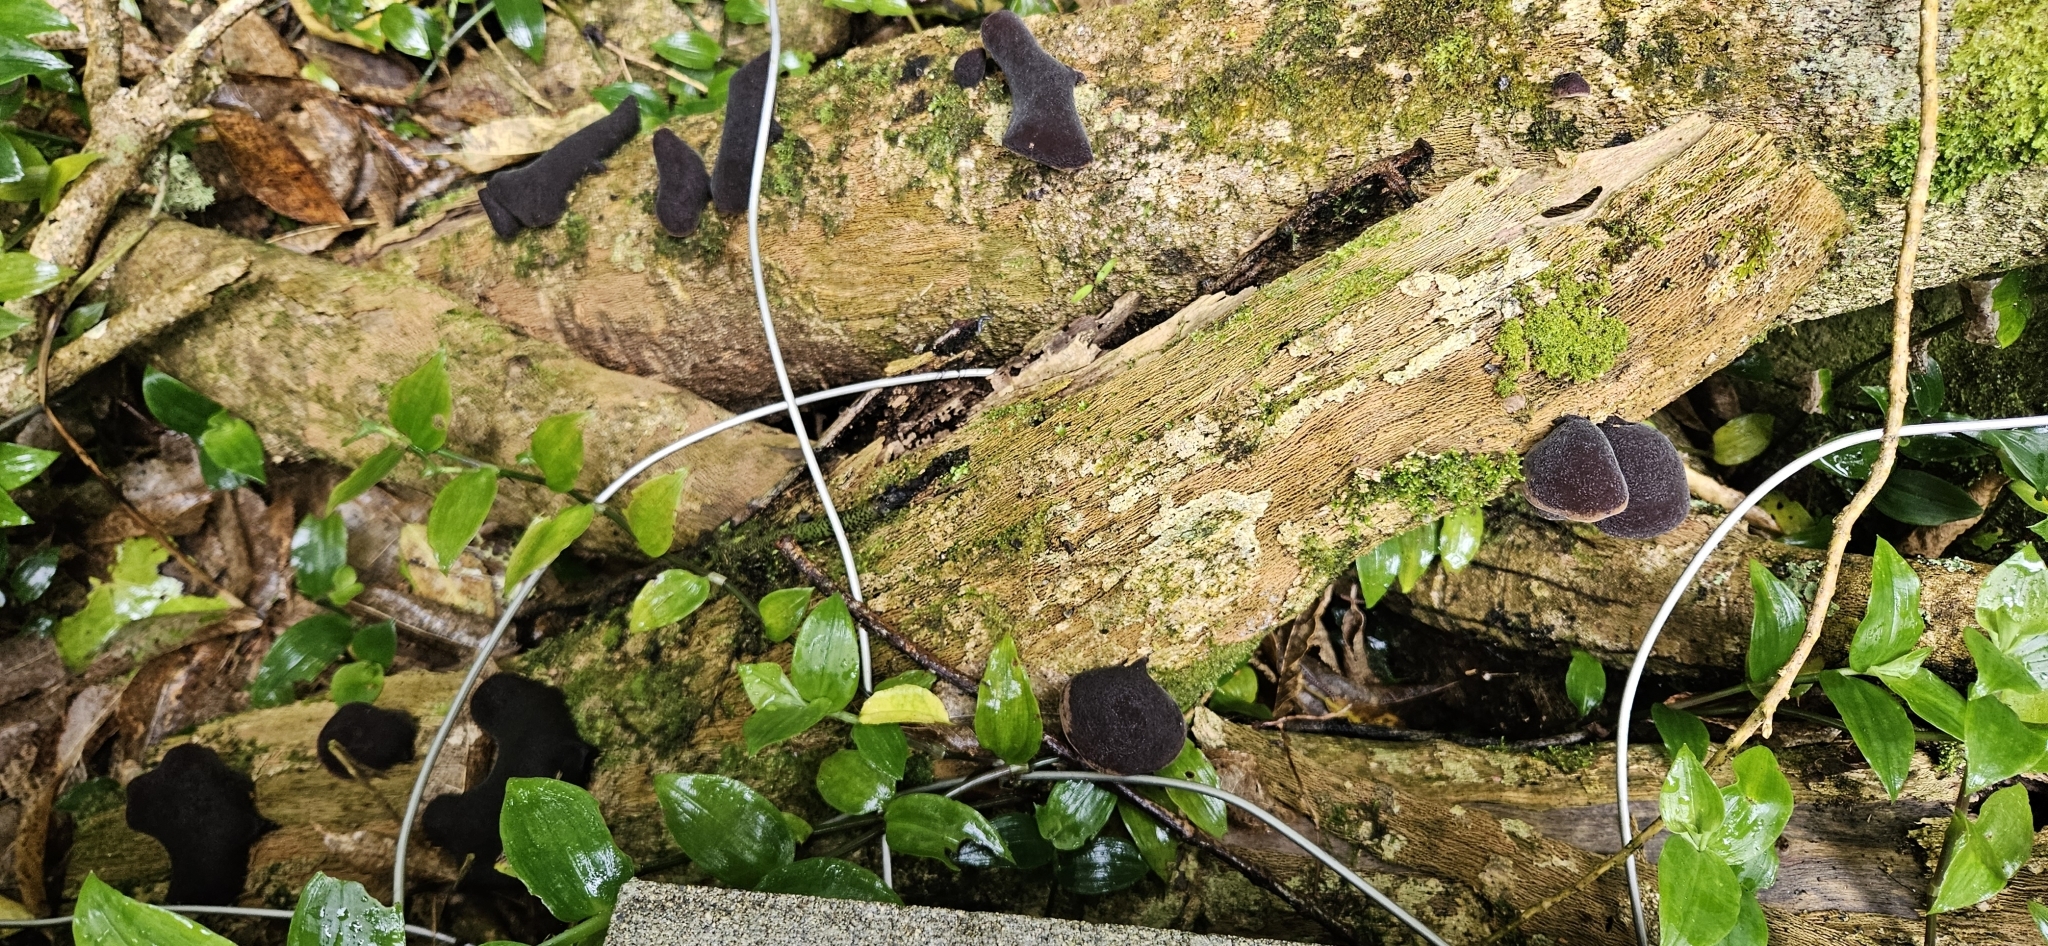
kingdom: Fungi
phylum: Basidiomycota
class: Agaricomycetes
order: Auriculariales
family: Auriculariaceae
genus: Auricularia
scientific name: Auricularia cornea
